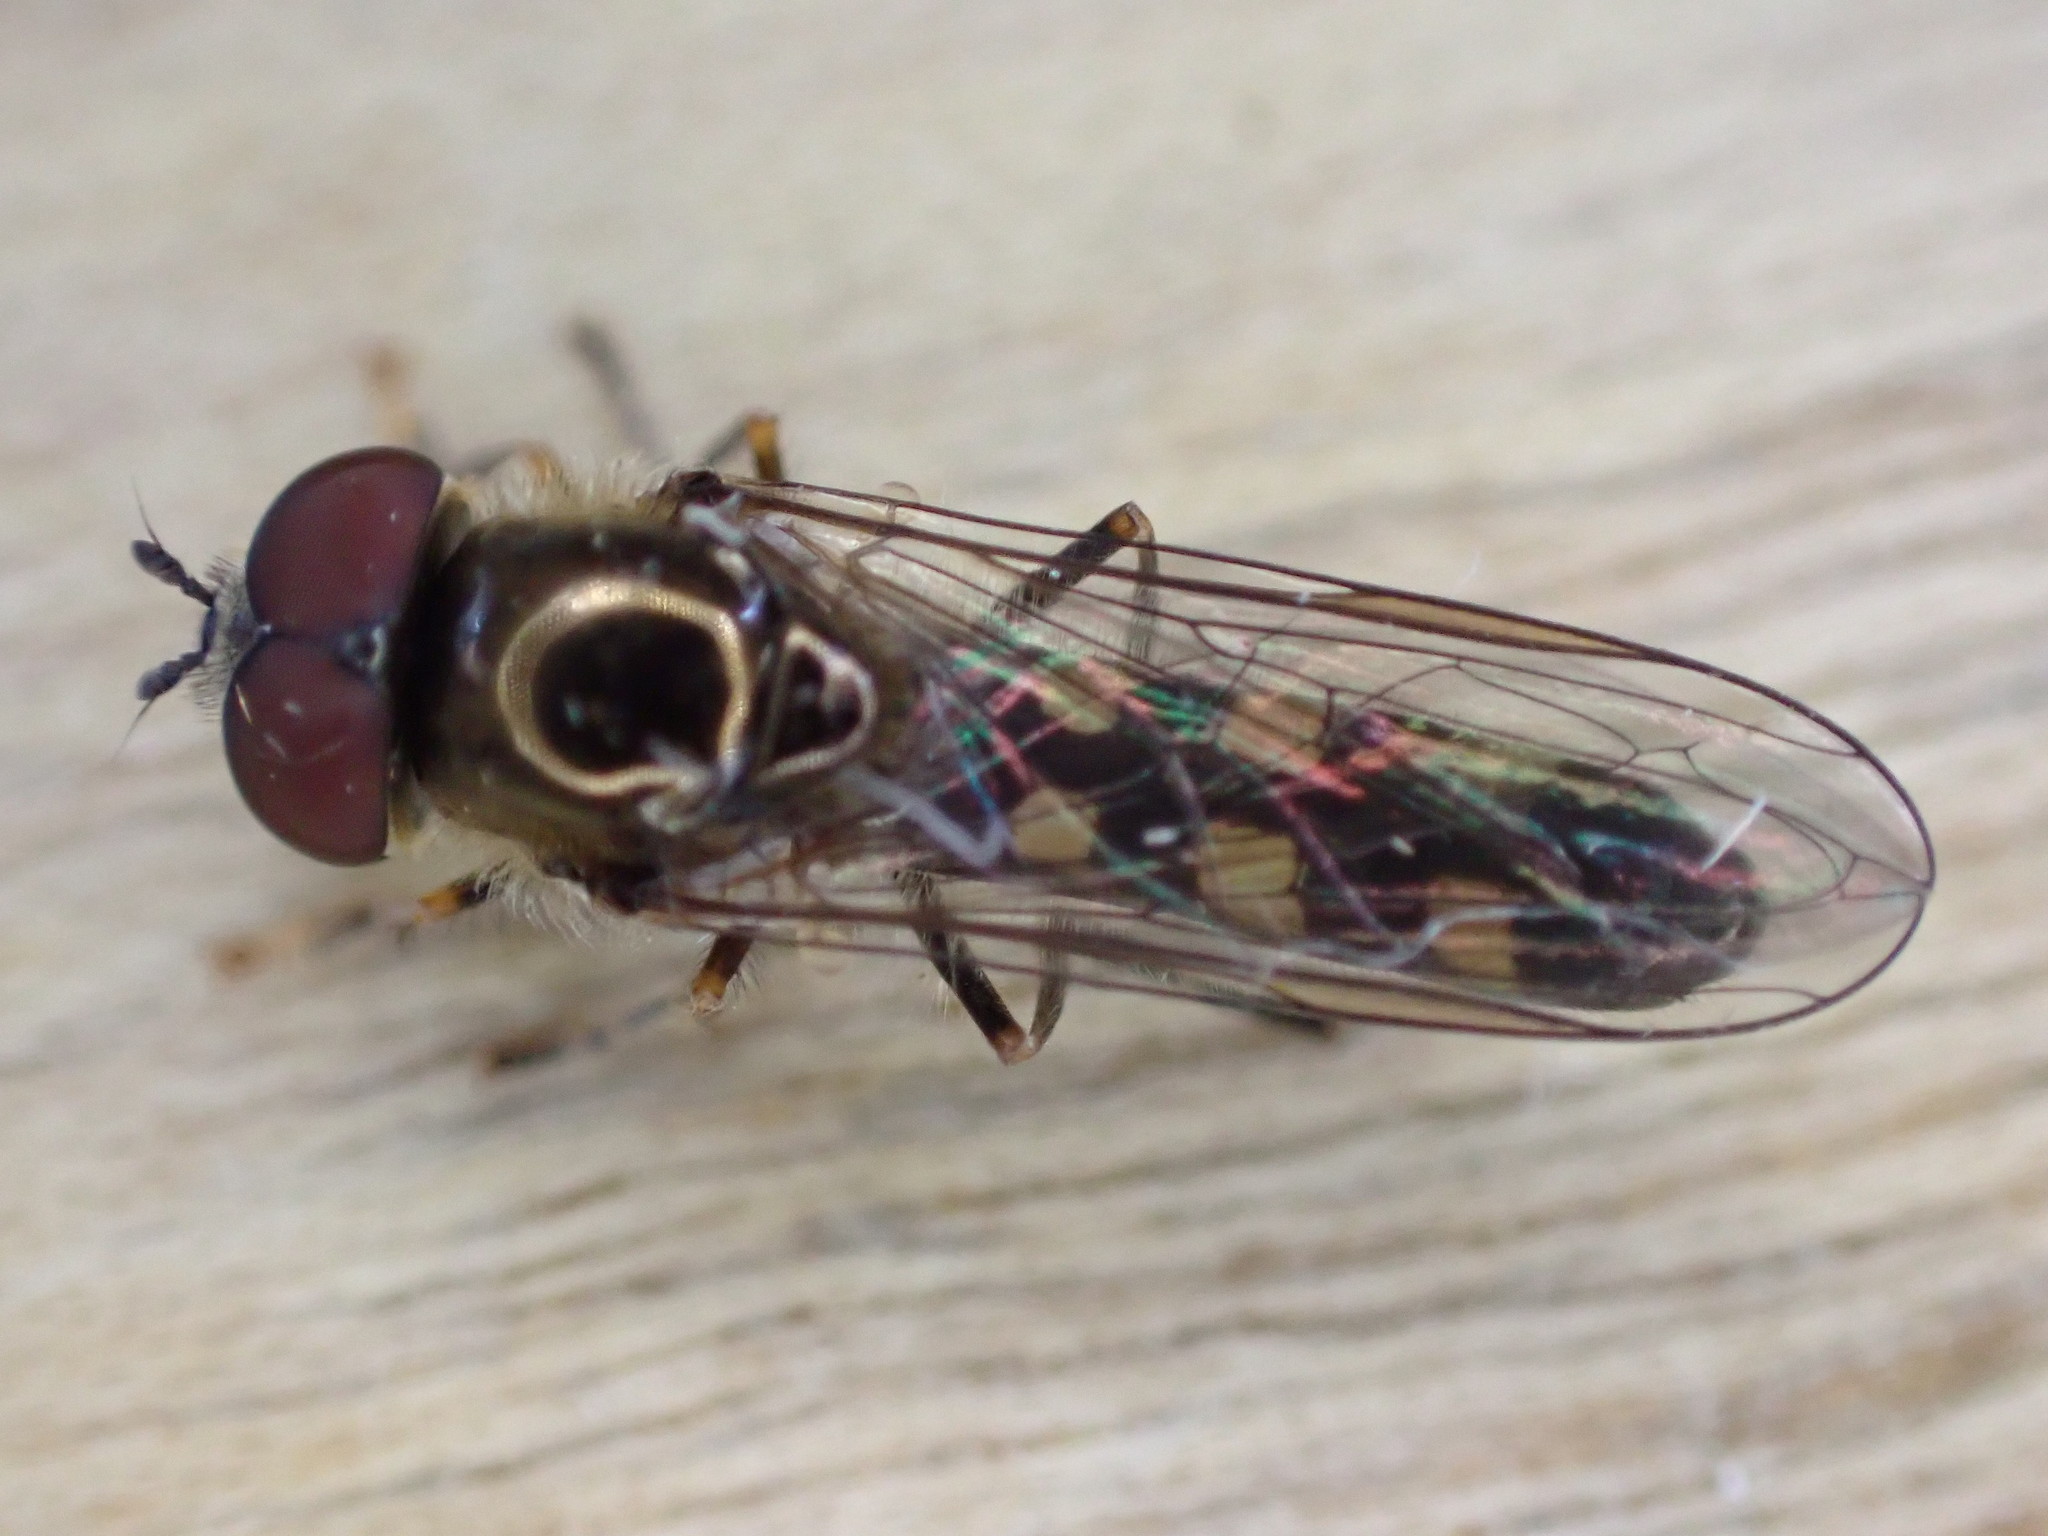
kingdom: Animalia
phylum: Arthropoda
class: Insecta
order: Diptera
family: Syrphidae
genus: Platycheirus
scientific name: Platycheirus albimanus
